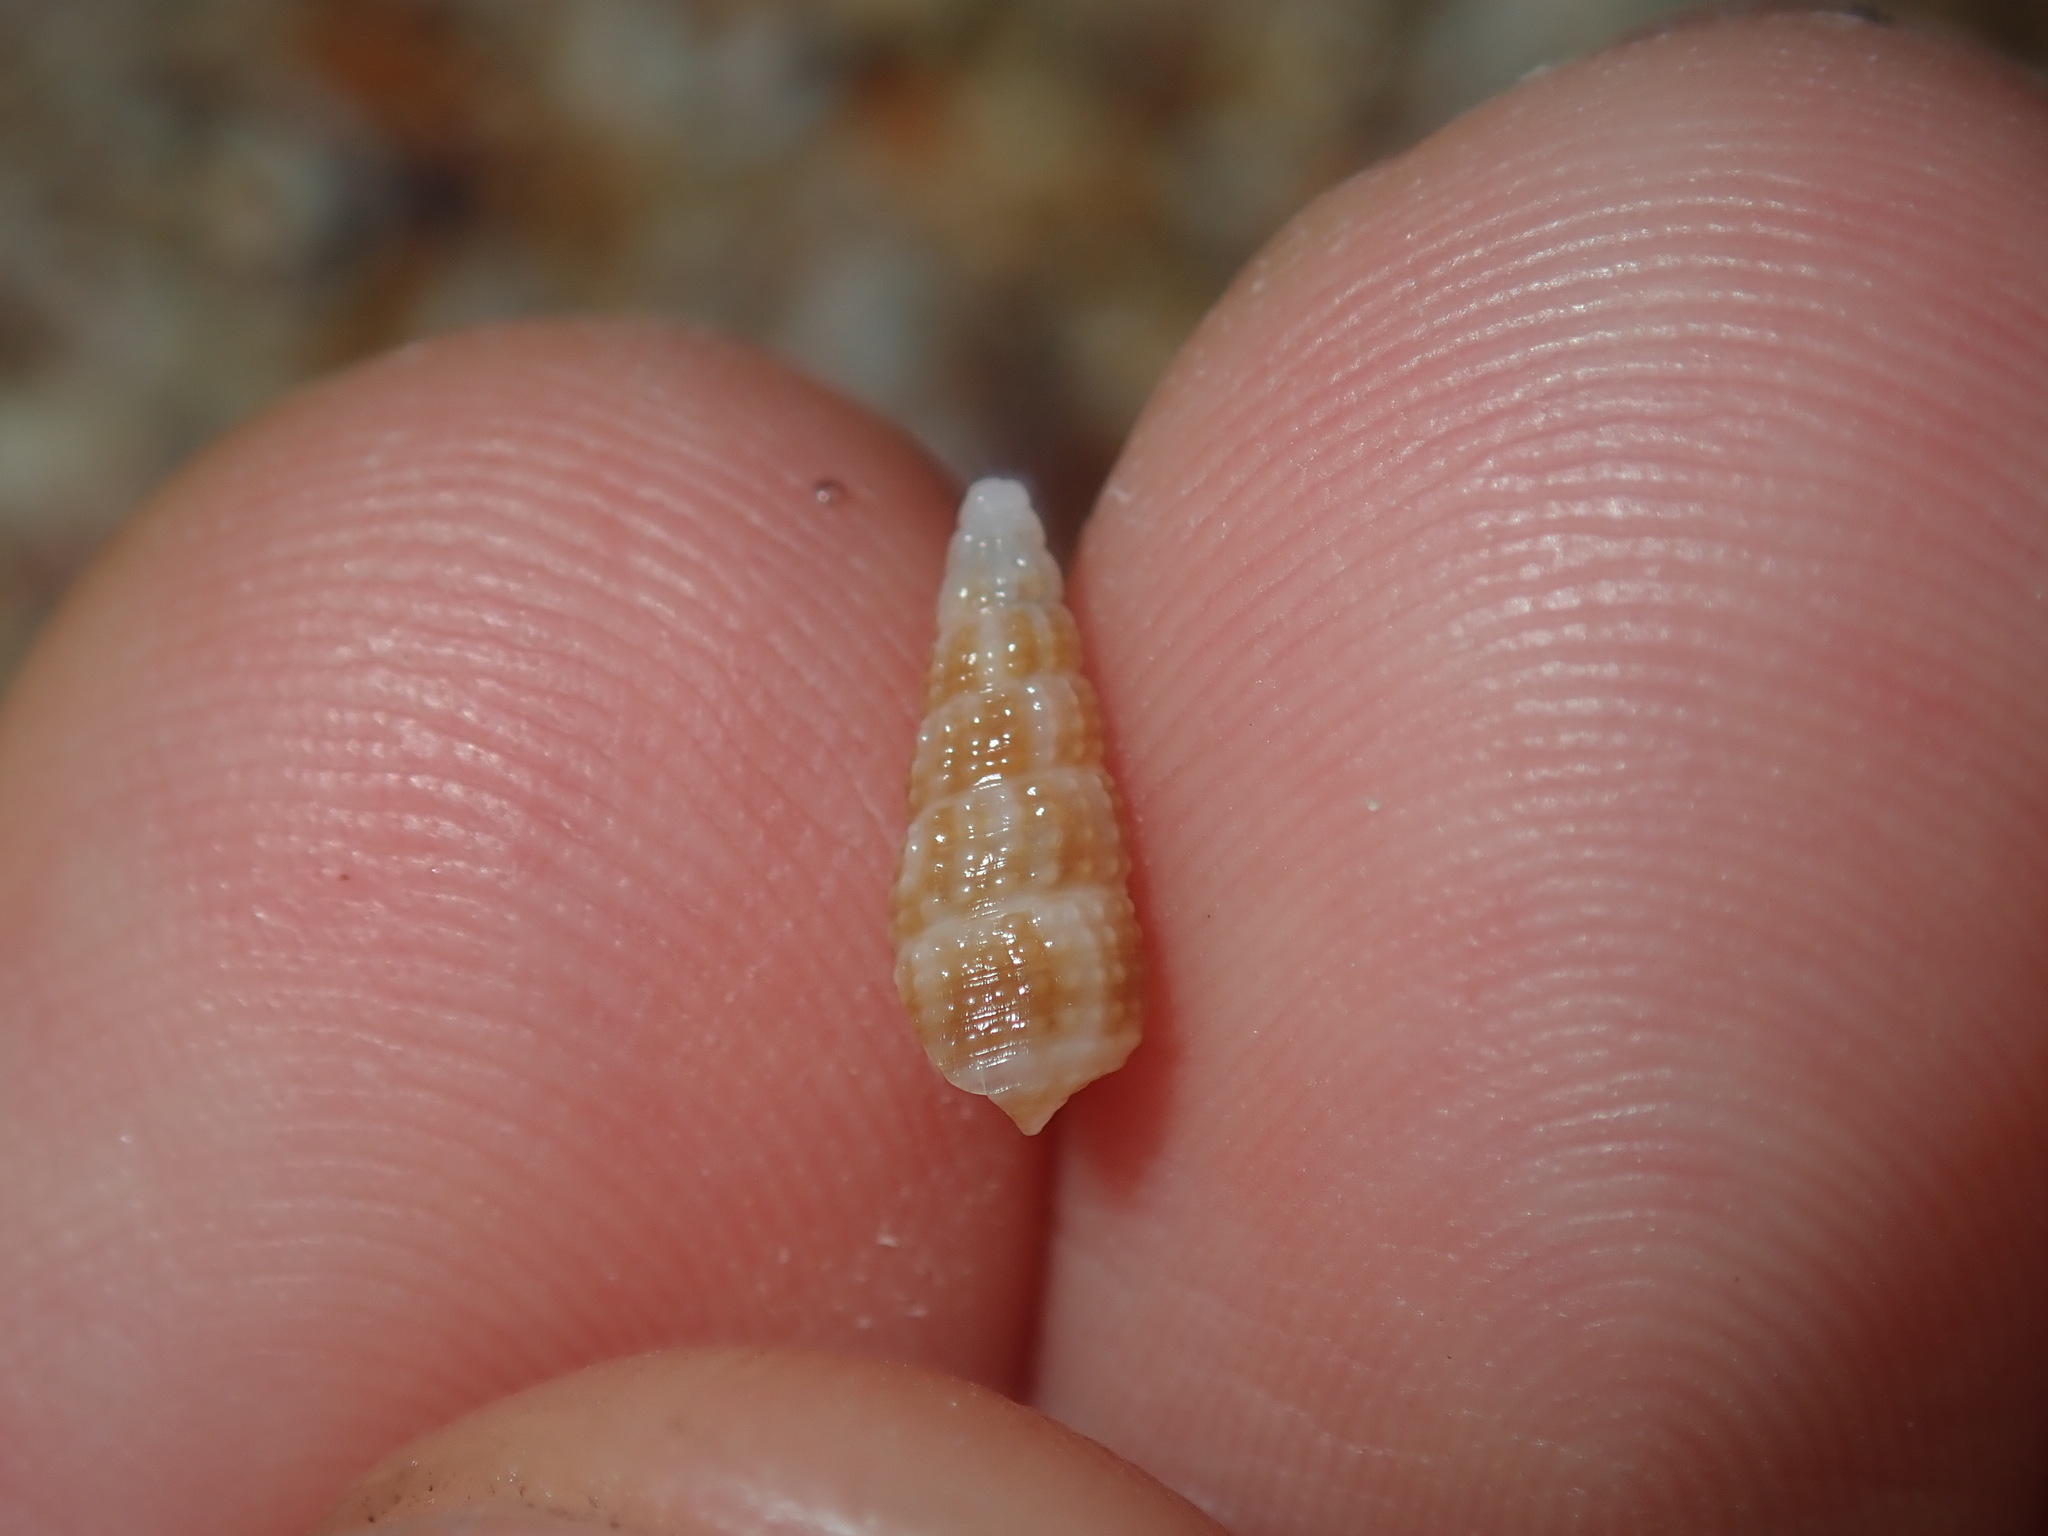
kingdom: Animalia
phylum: Mollusca
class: Gastropoda
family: Cerithiidae
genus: Cacozeliana
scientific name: Cacozeliana granarium
